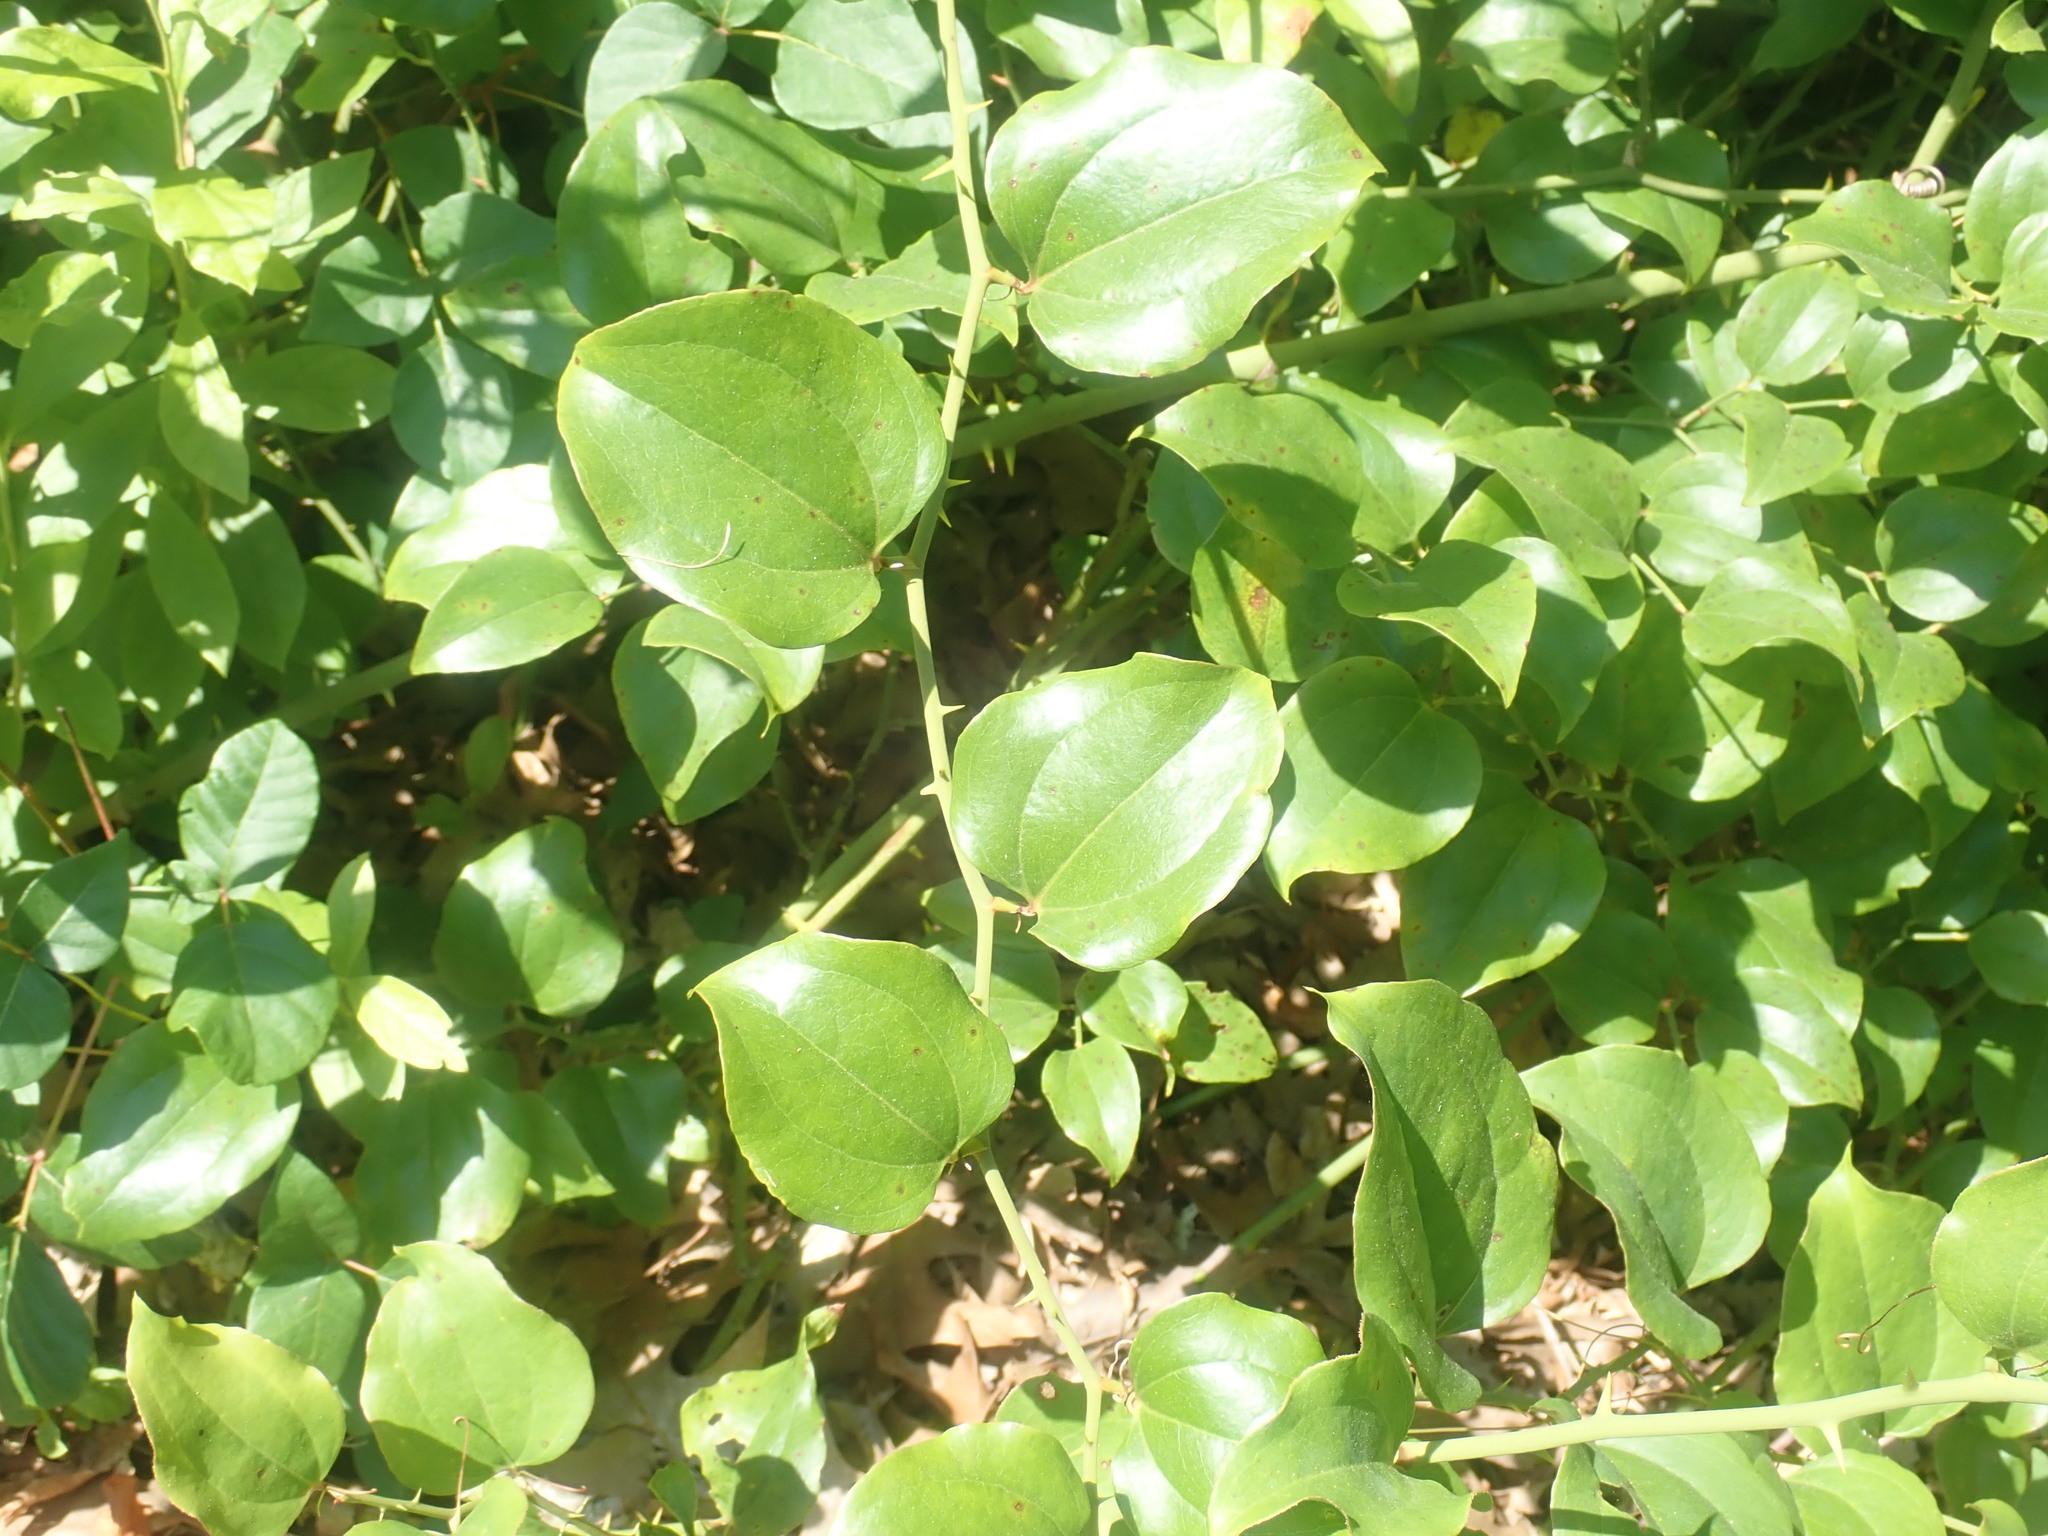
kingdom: Plantae
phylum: Tracheophyta
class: Liliopsida
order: Liliales
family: Smilacaceae
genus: Smilax
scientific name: Smilax rotundifolia
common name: Bullbriar
